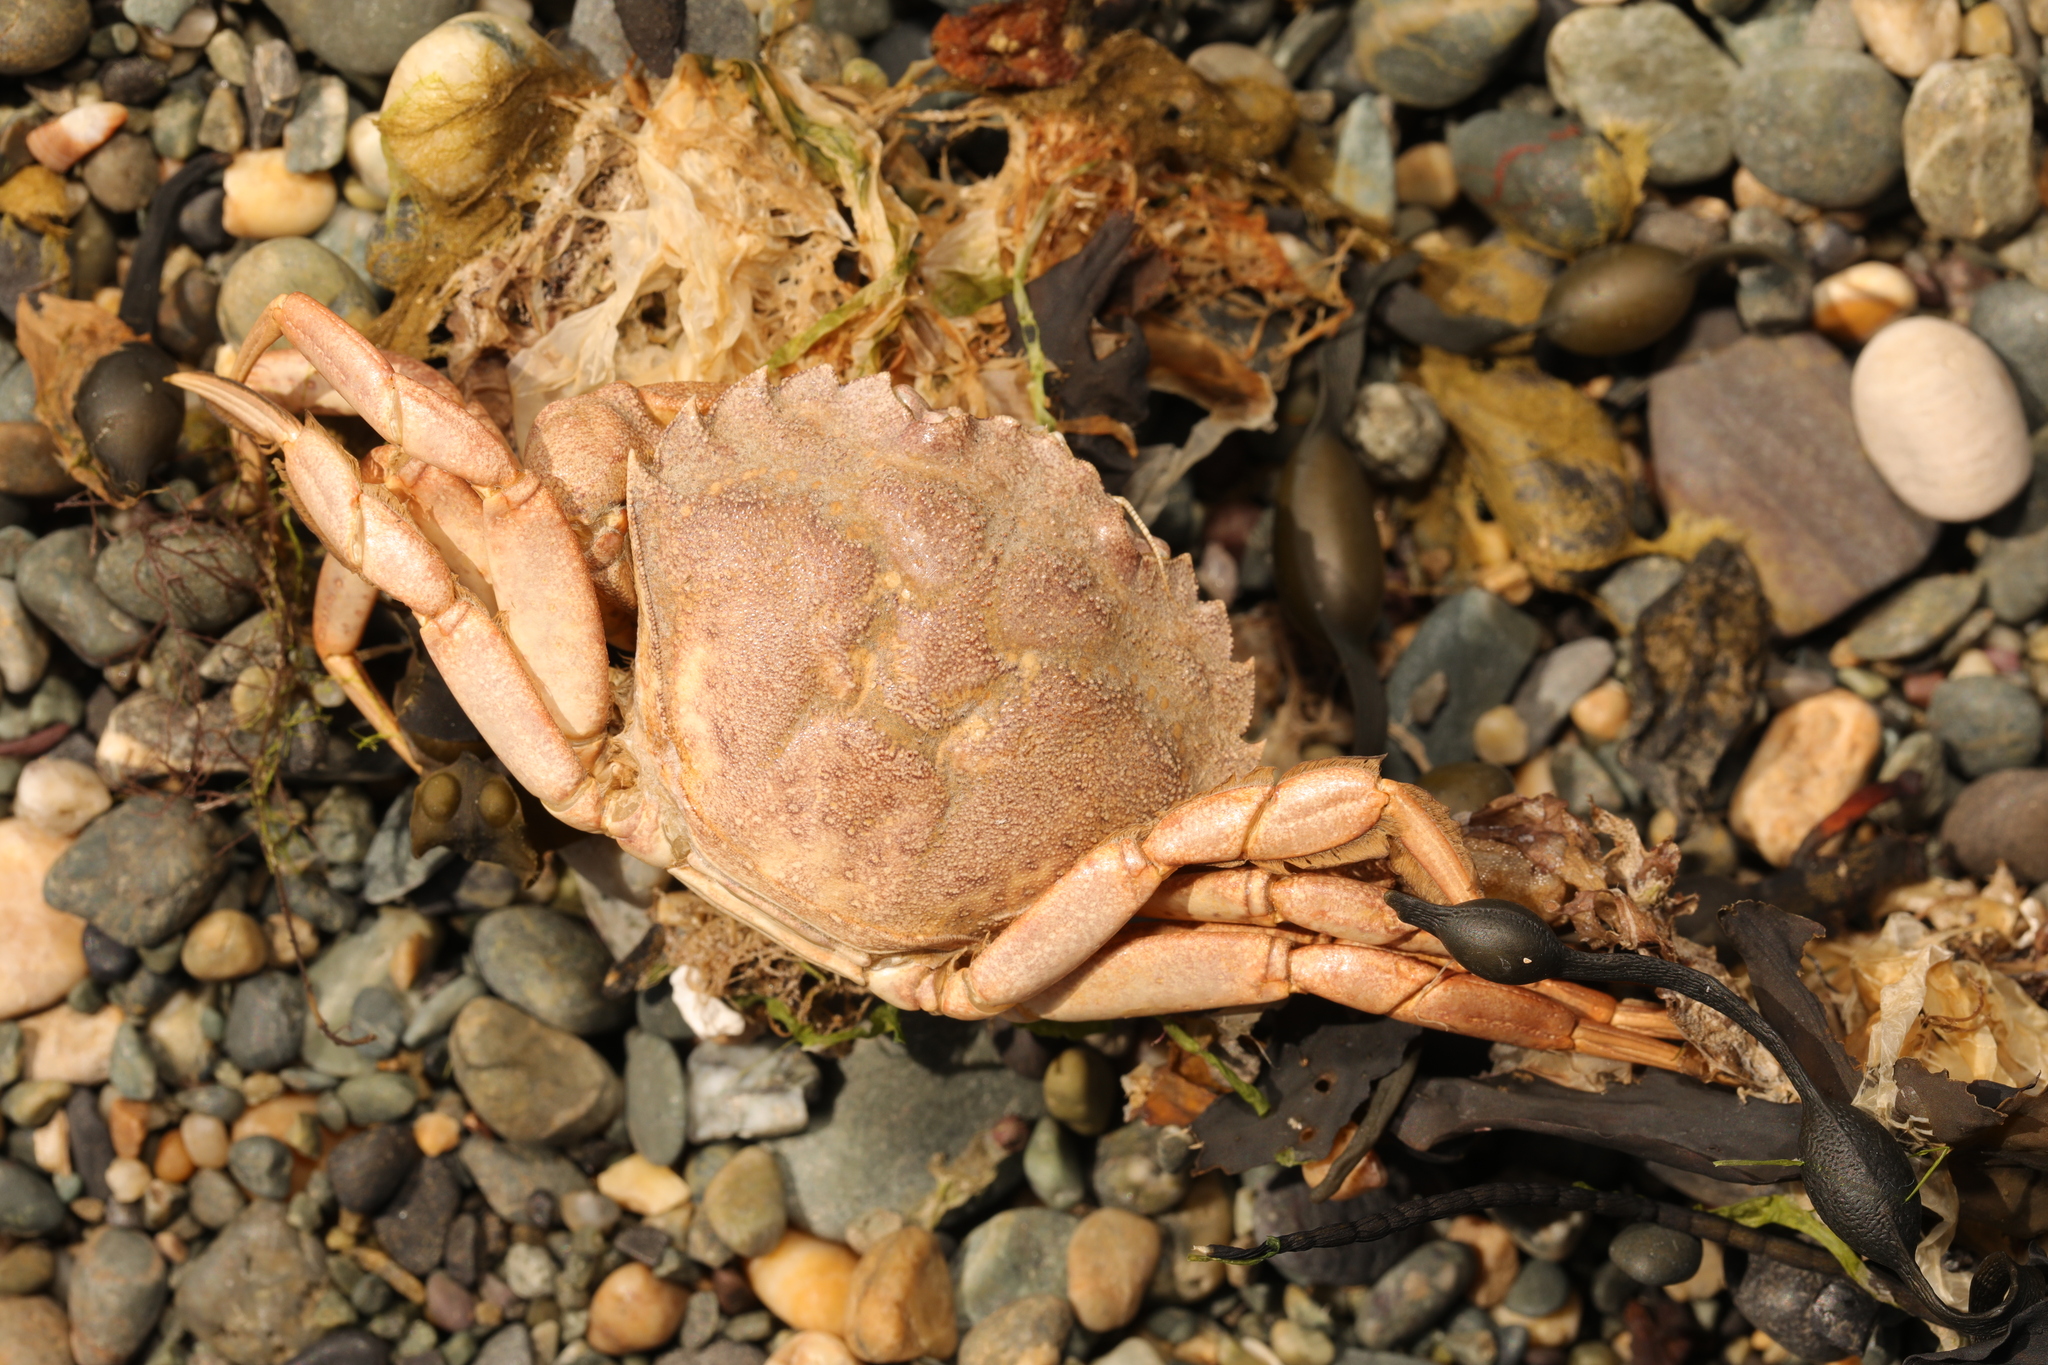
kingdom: Animalia
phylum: Arthropoda
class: Malacostraca
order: Decapoda
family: Carcinidae
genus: Carcinus
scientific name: Carcinus maenas
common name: European green crab
